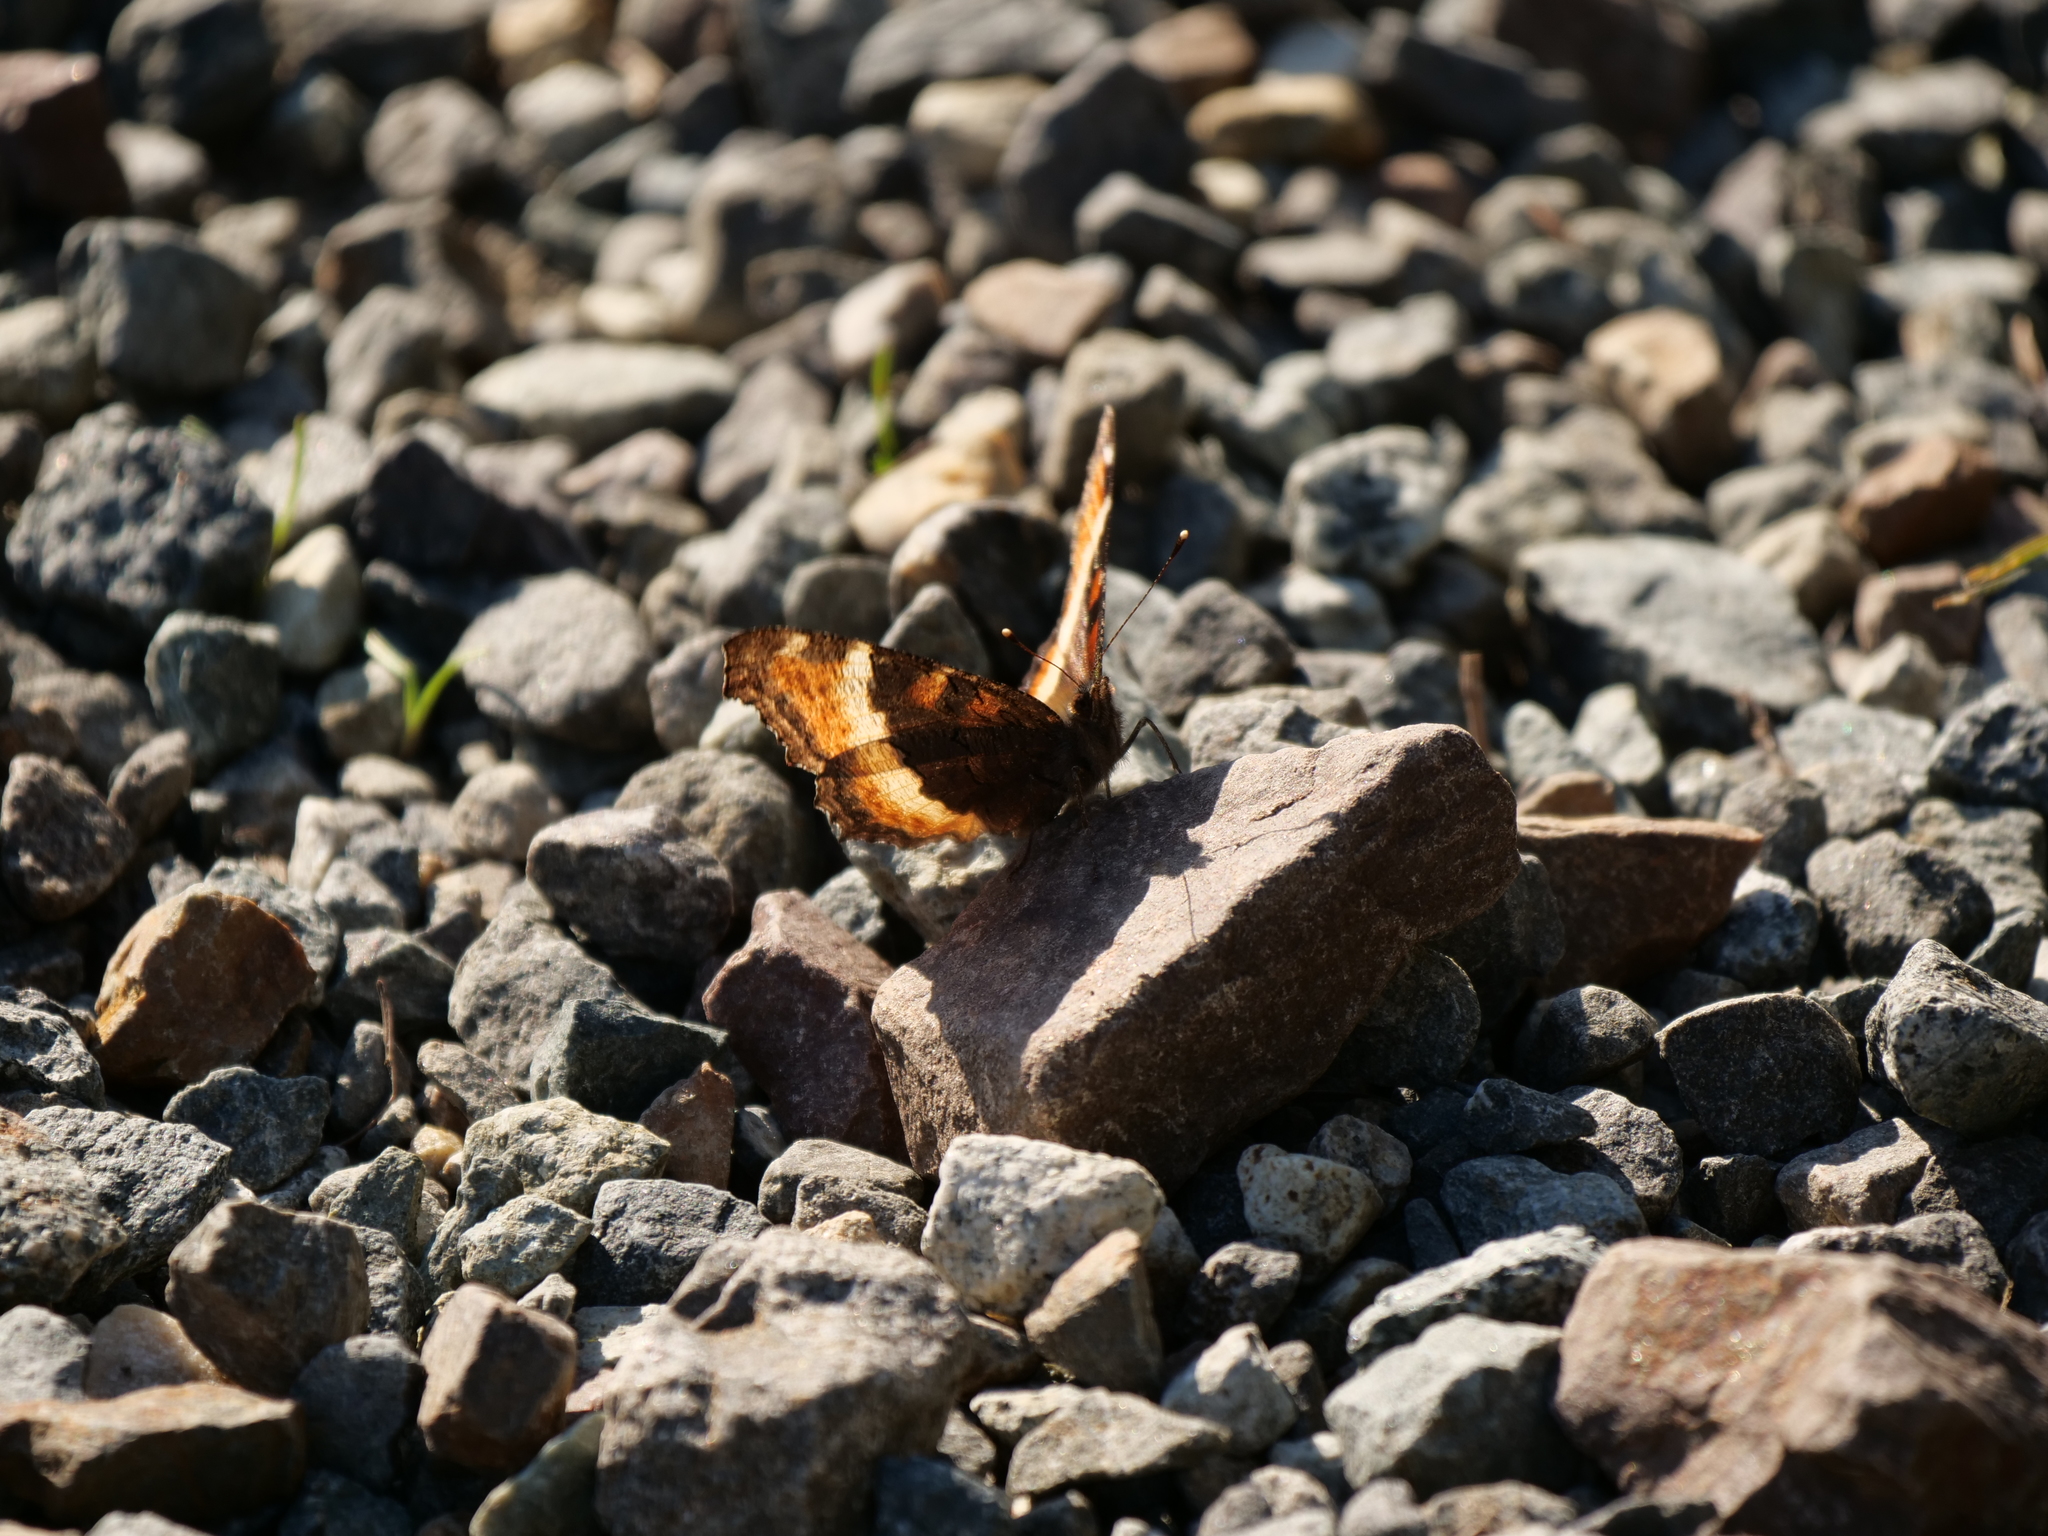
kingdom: Animalia
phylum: Arthropoda
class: Insecta
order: Lepidoptera
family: Nymphalidae
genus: Aglais
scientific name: Aglais milberti
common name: Milbert's tortoiseshell
